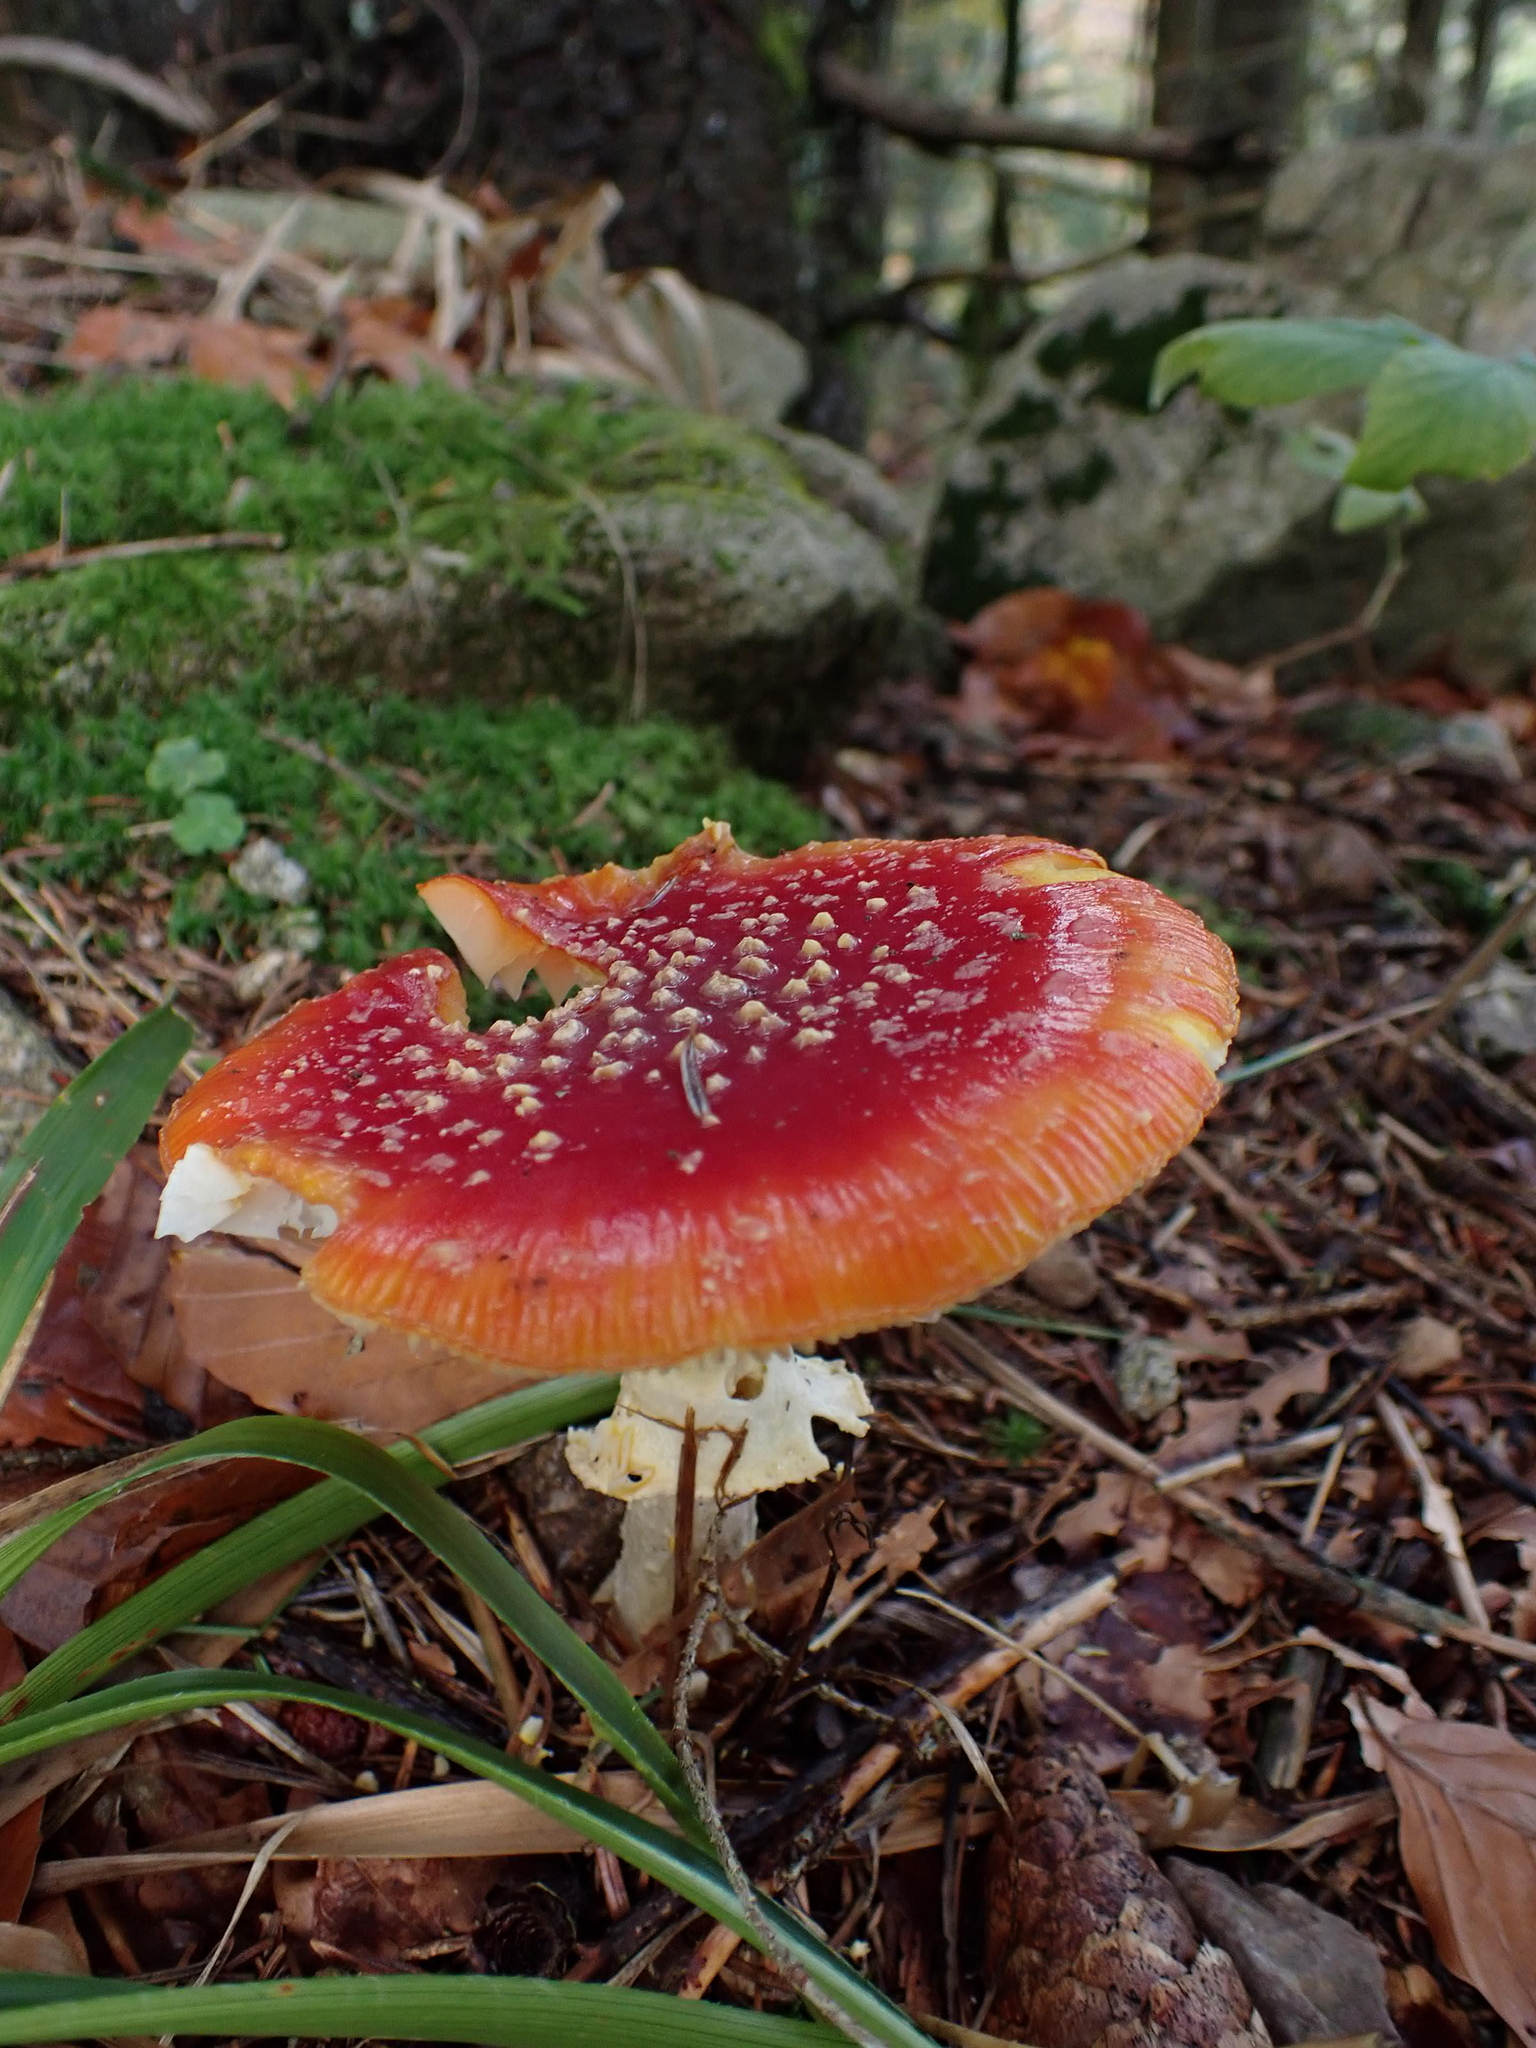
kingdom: Fungi
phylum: Basidiomycota
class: Agaricomycetes
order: Agaricales
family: Amanitaceae
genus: Amanita
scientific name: Amanita muscaria
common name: Fly agaric
